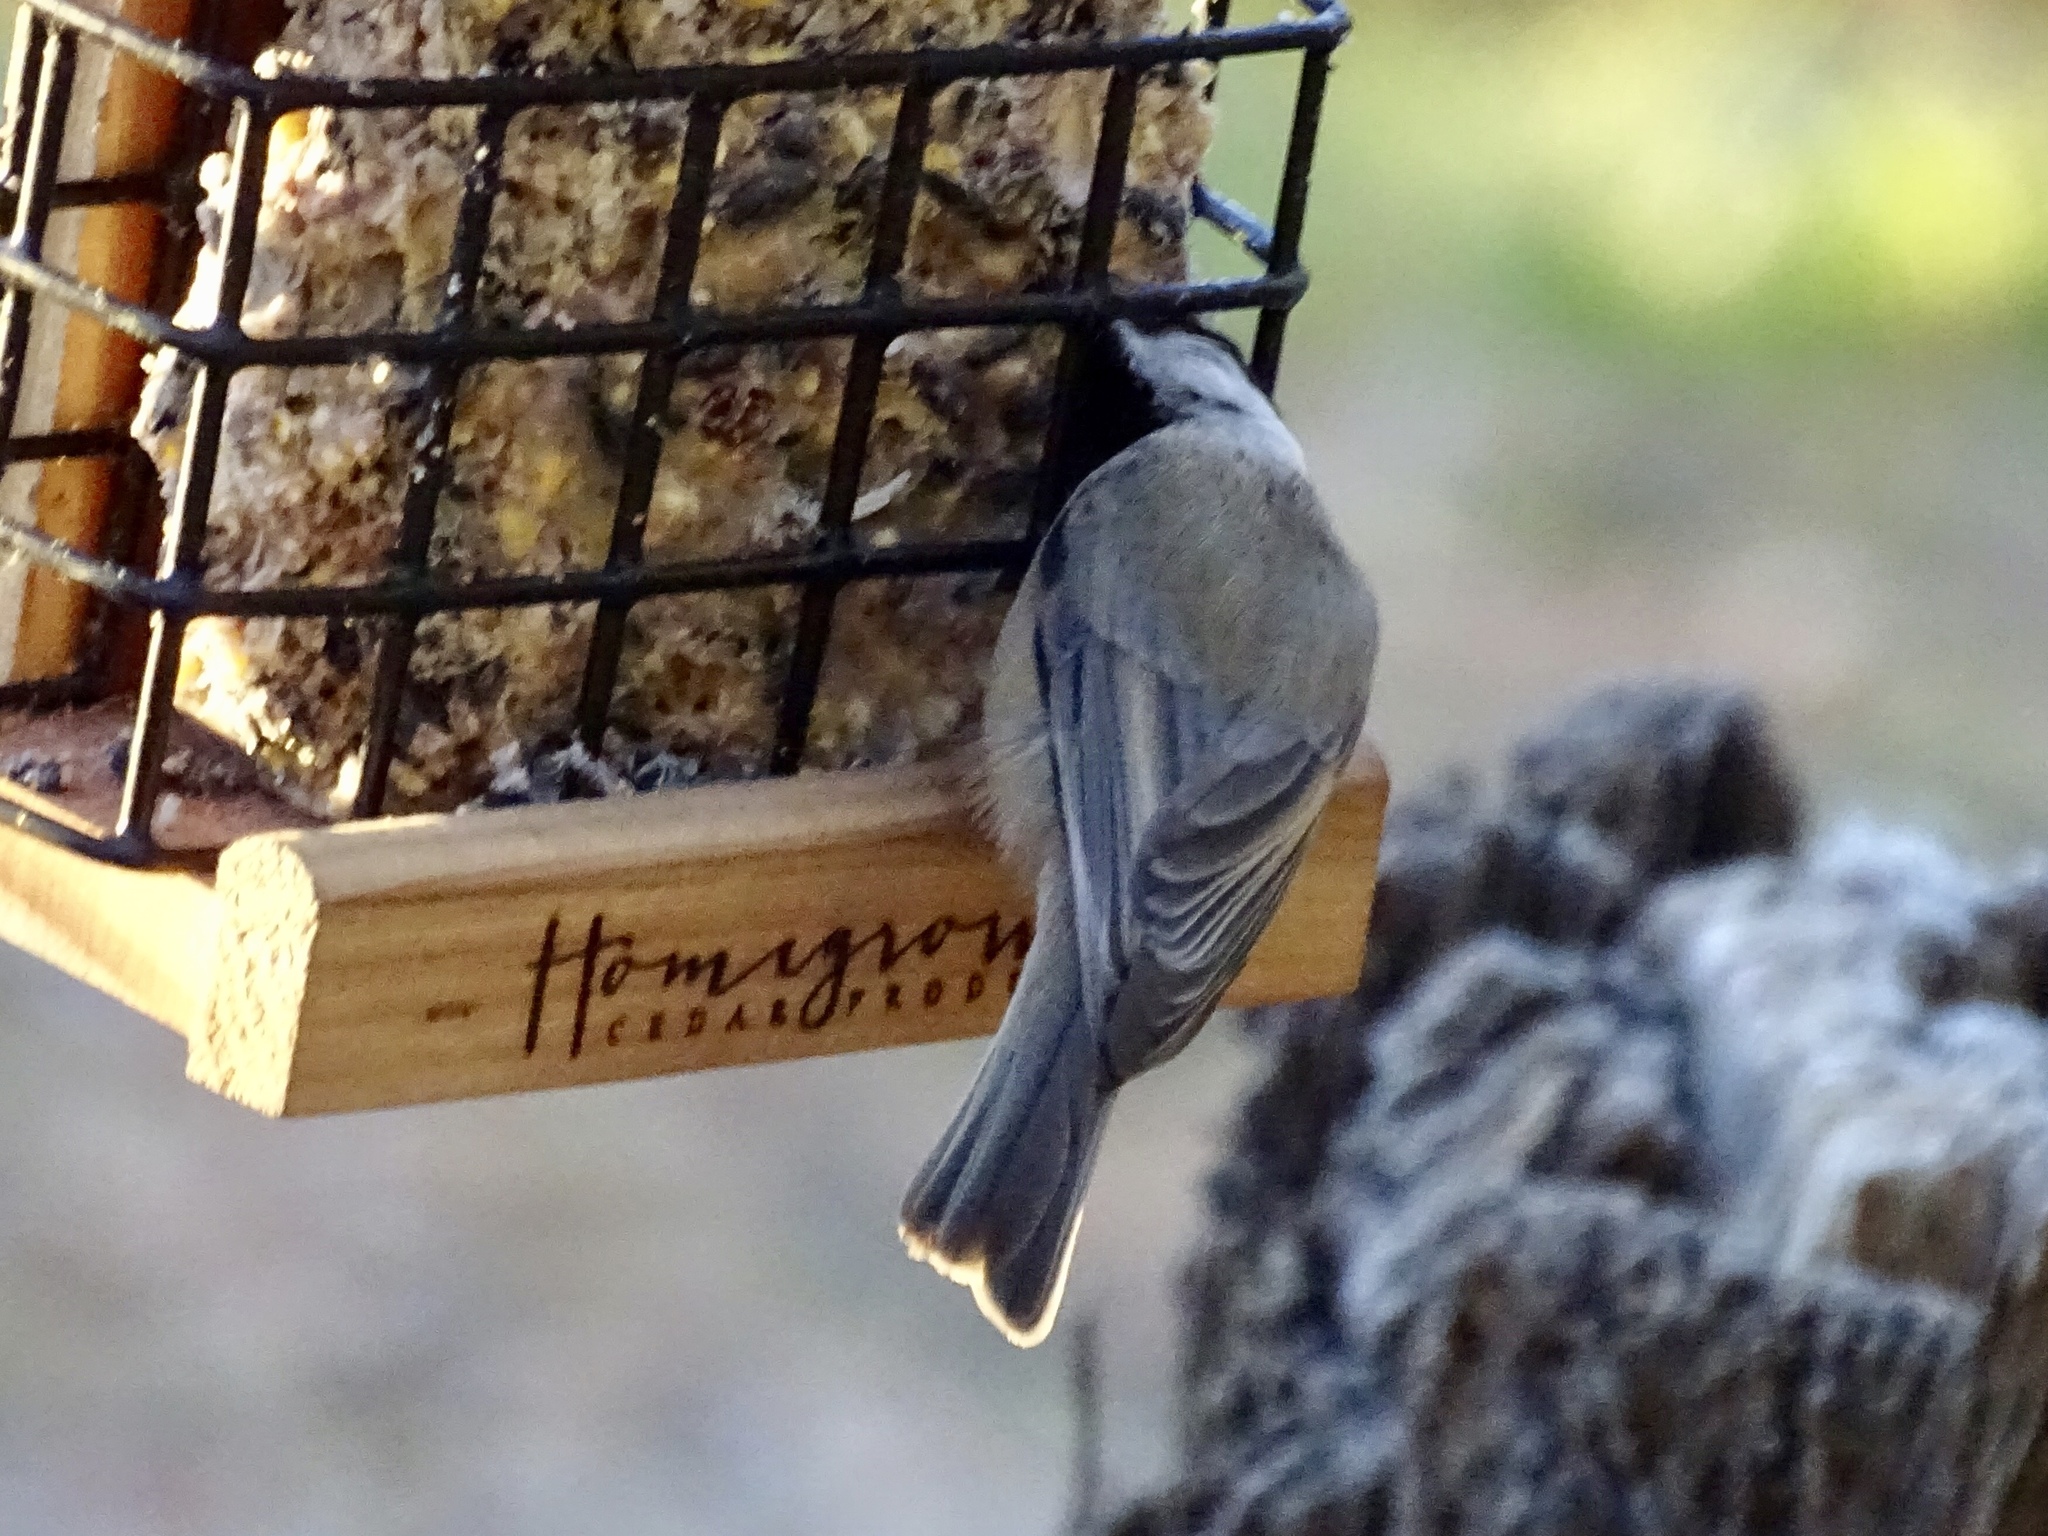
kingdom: Animalia
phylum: Chordata
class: Aves
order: Passeriformes
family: Paridae
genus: Poecile
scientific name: Poecile gambeli
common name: Mountain chickadee
